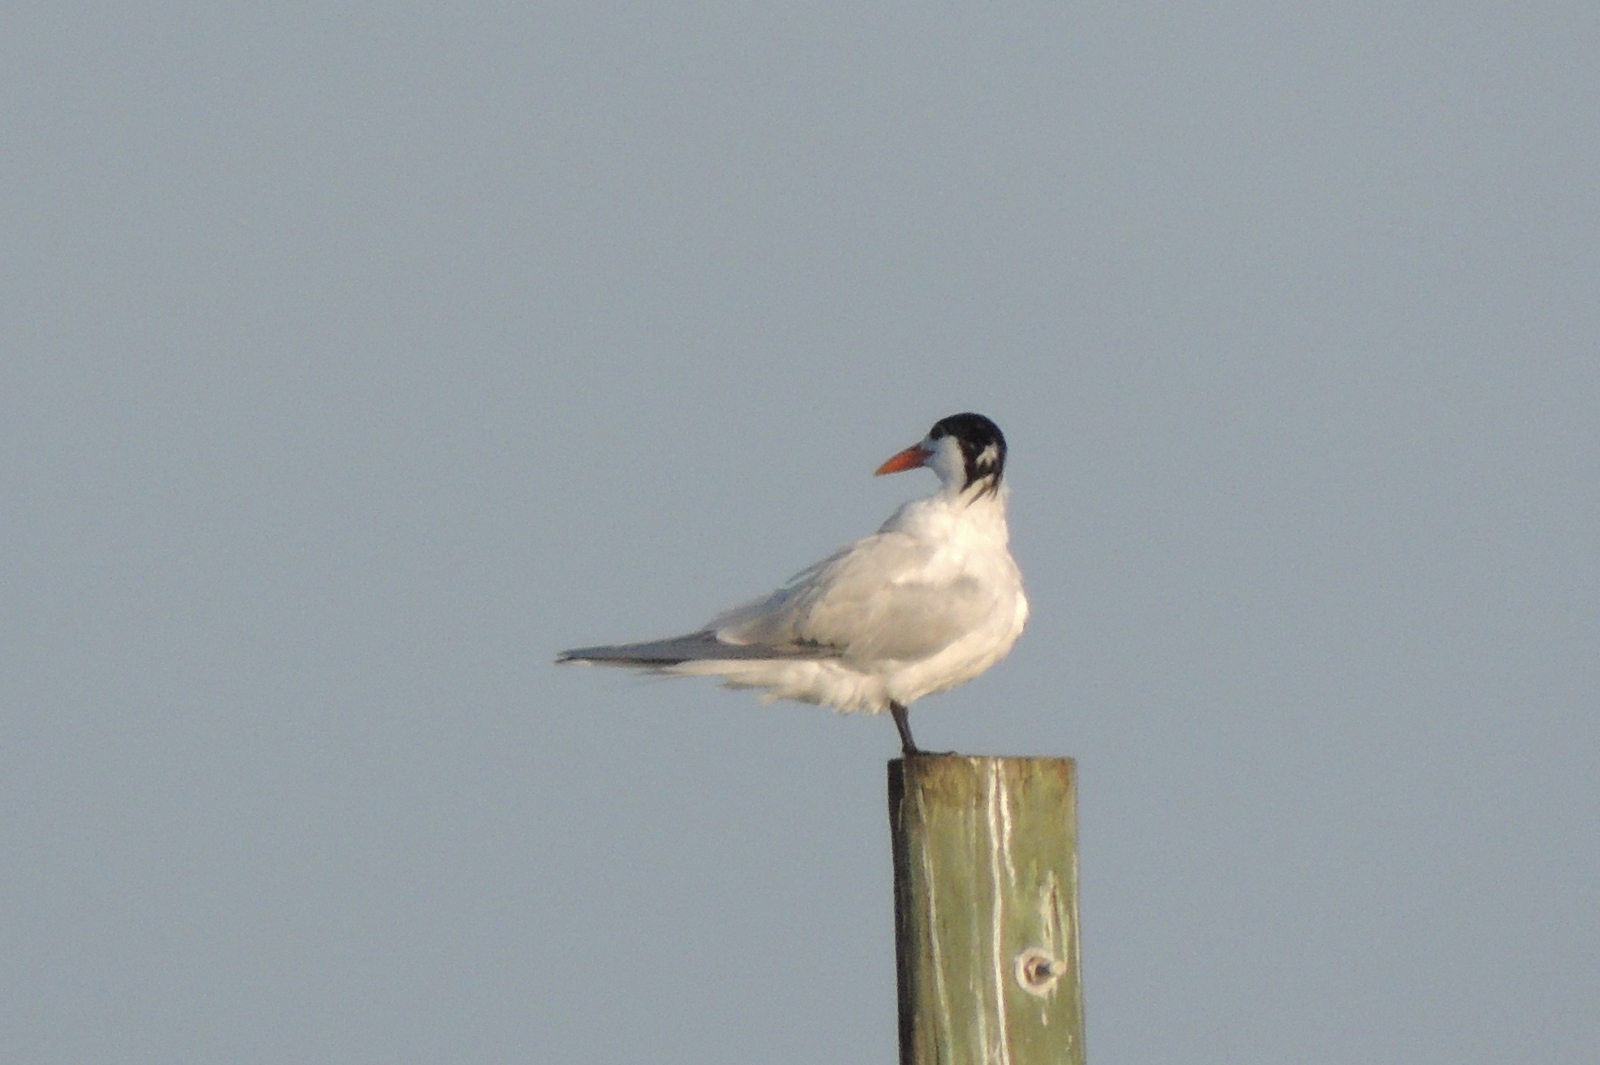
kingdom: Animalia
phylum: Chordata
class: Aves
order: Charadriiformes
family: Laridae
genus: Thalasseus
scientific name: Thalasseus maximus
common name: Royal tern
